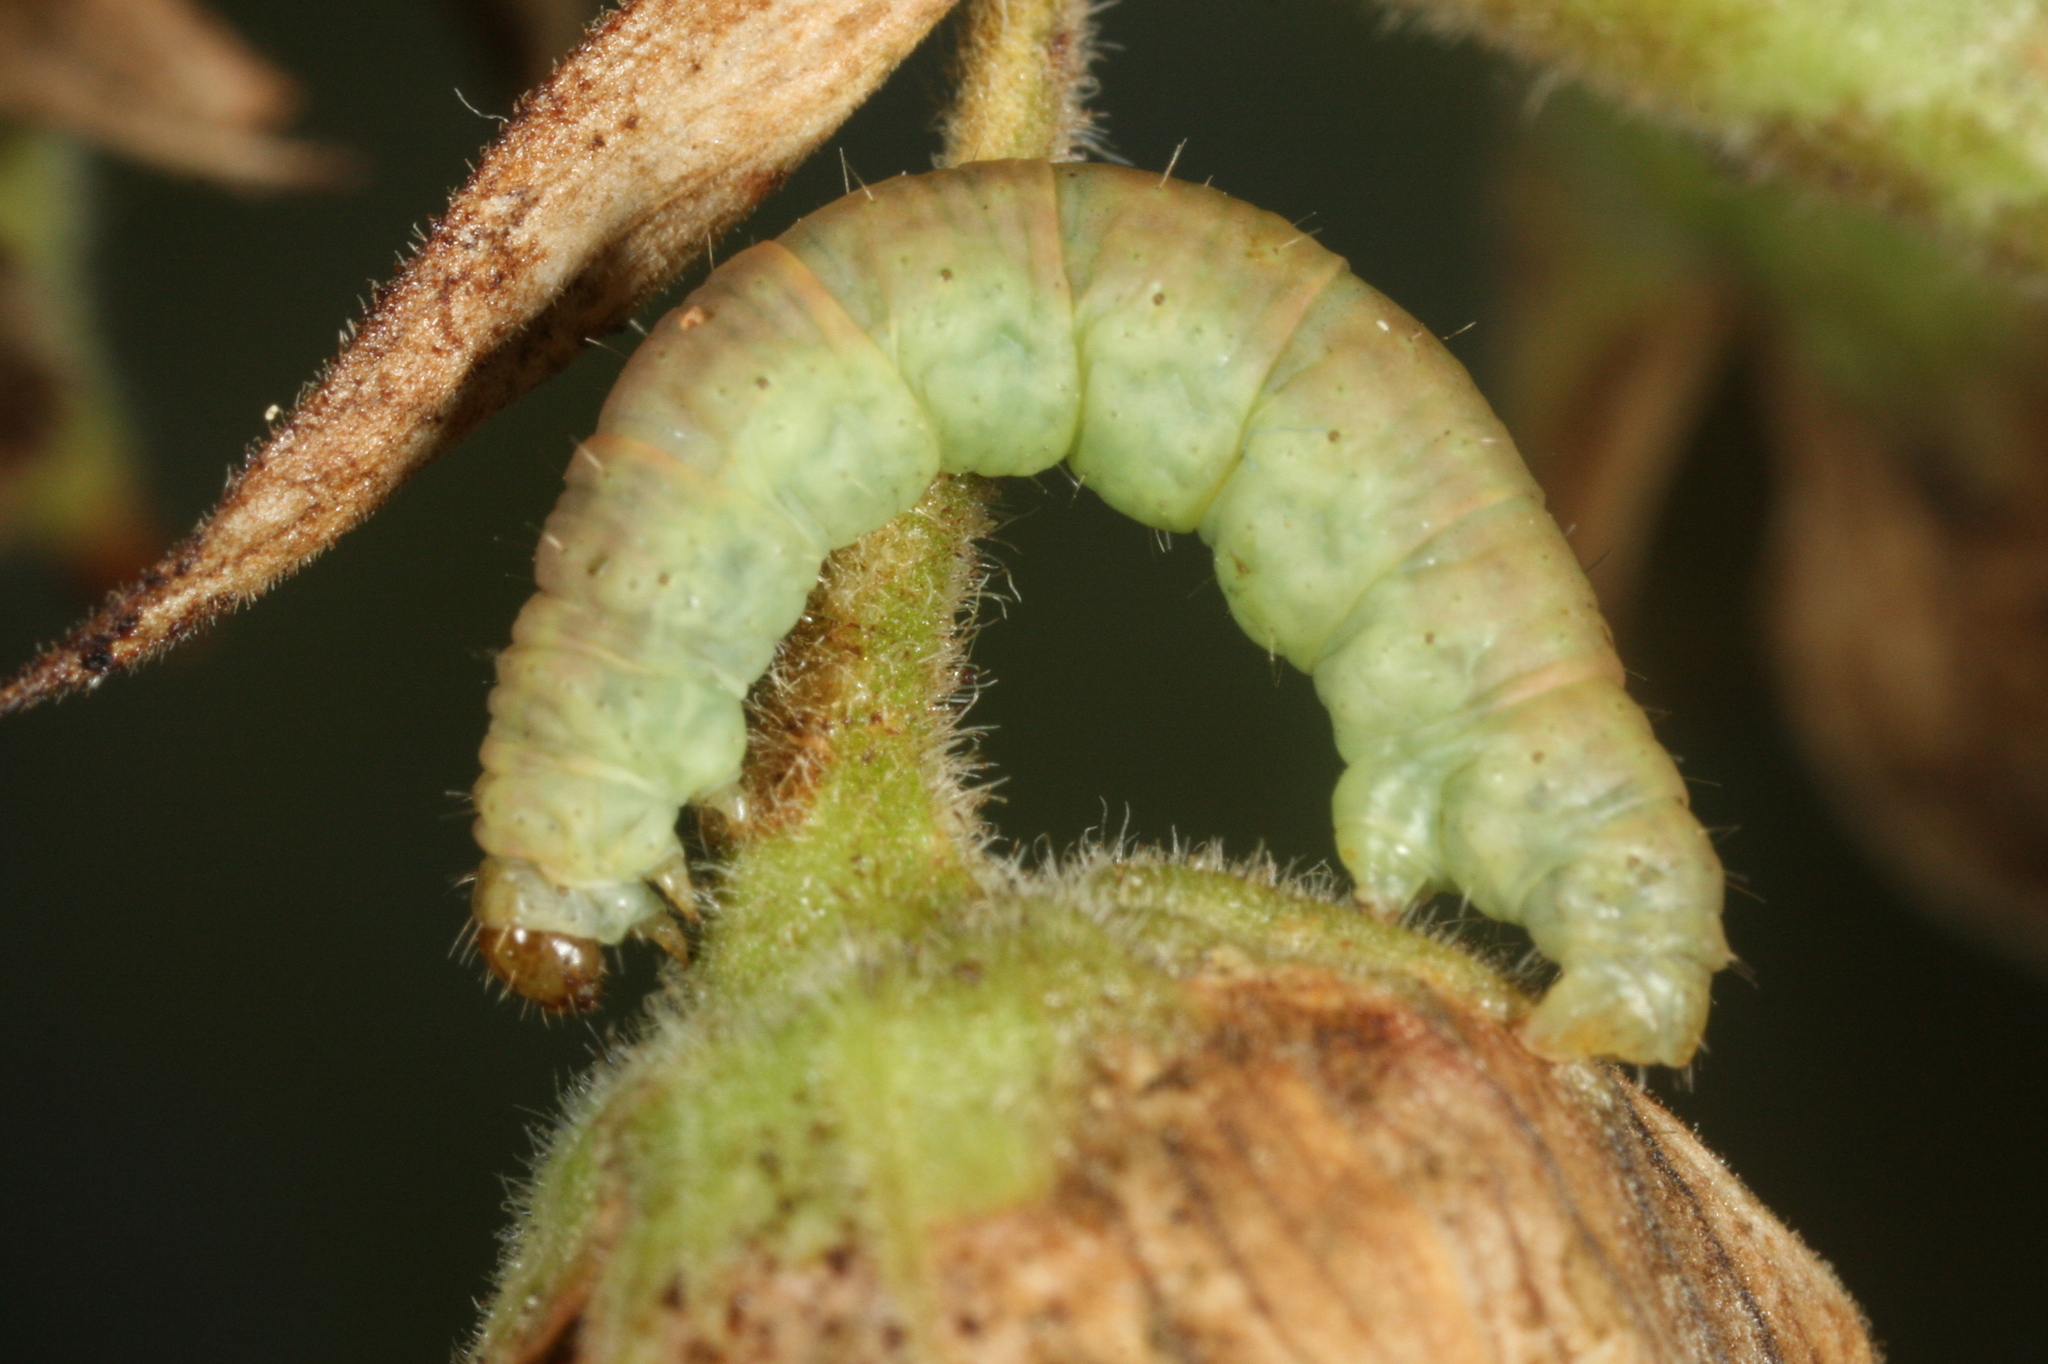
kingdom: Animalia
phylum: Arthropoda
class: Insecta
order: Lepidoptera
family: Geometridae
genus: Eupithecia
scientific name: Eupithecia pulchellata
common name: Foxglove pug
